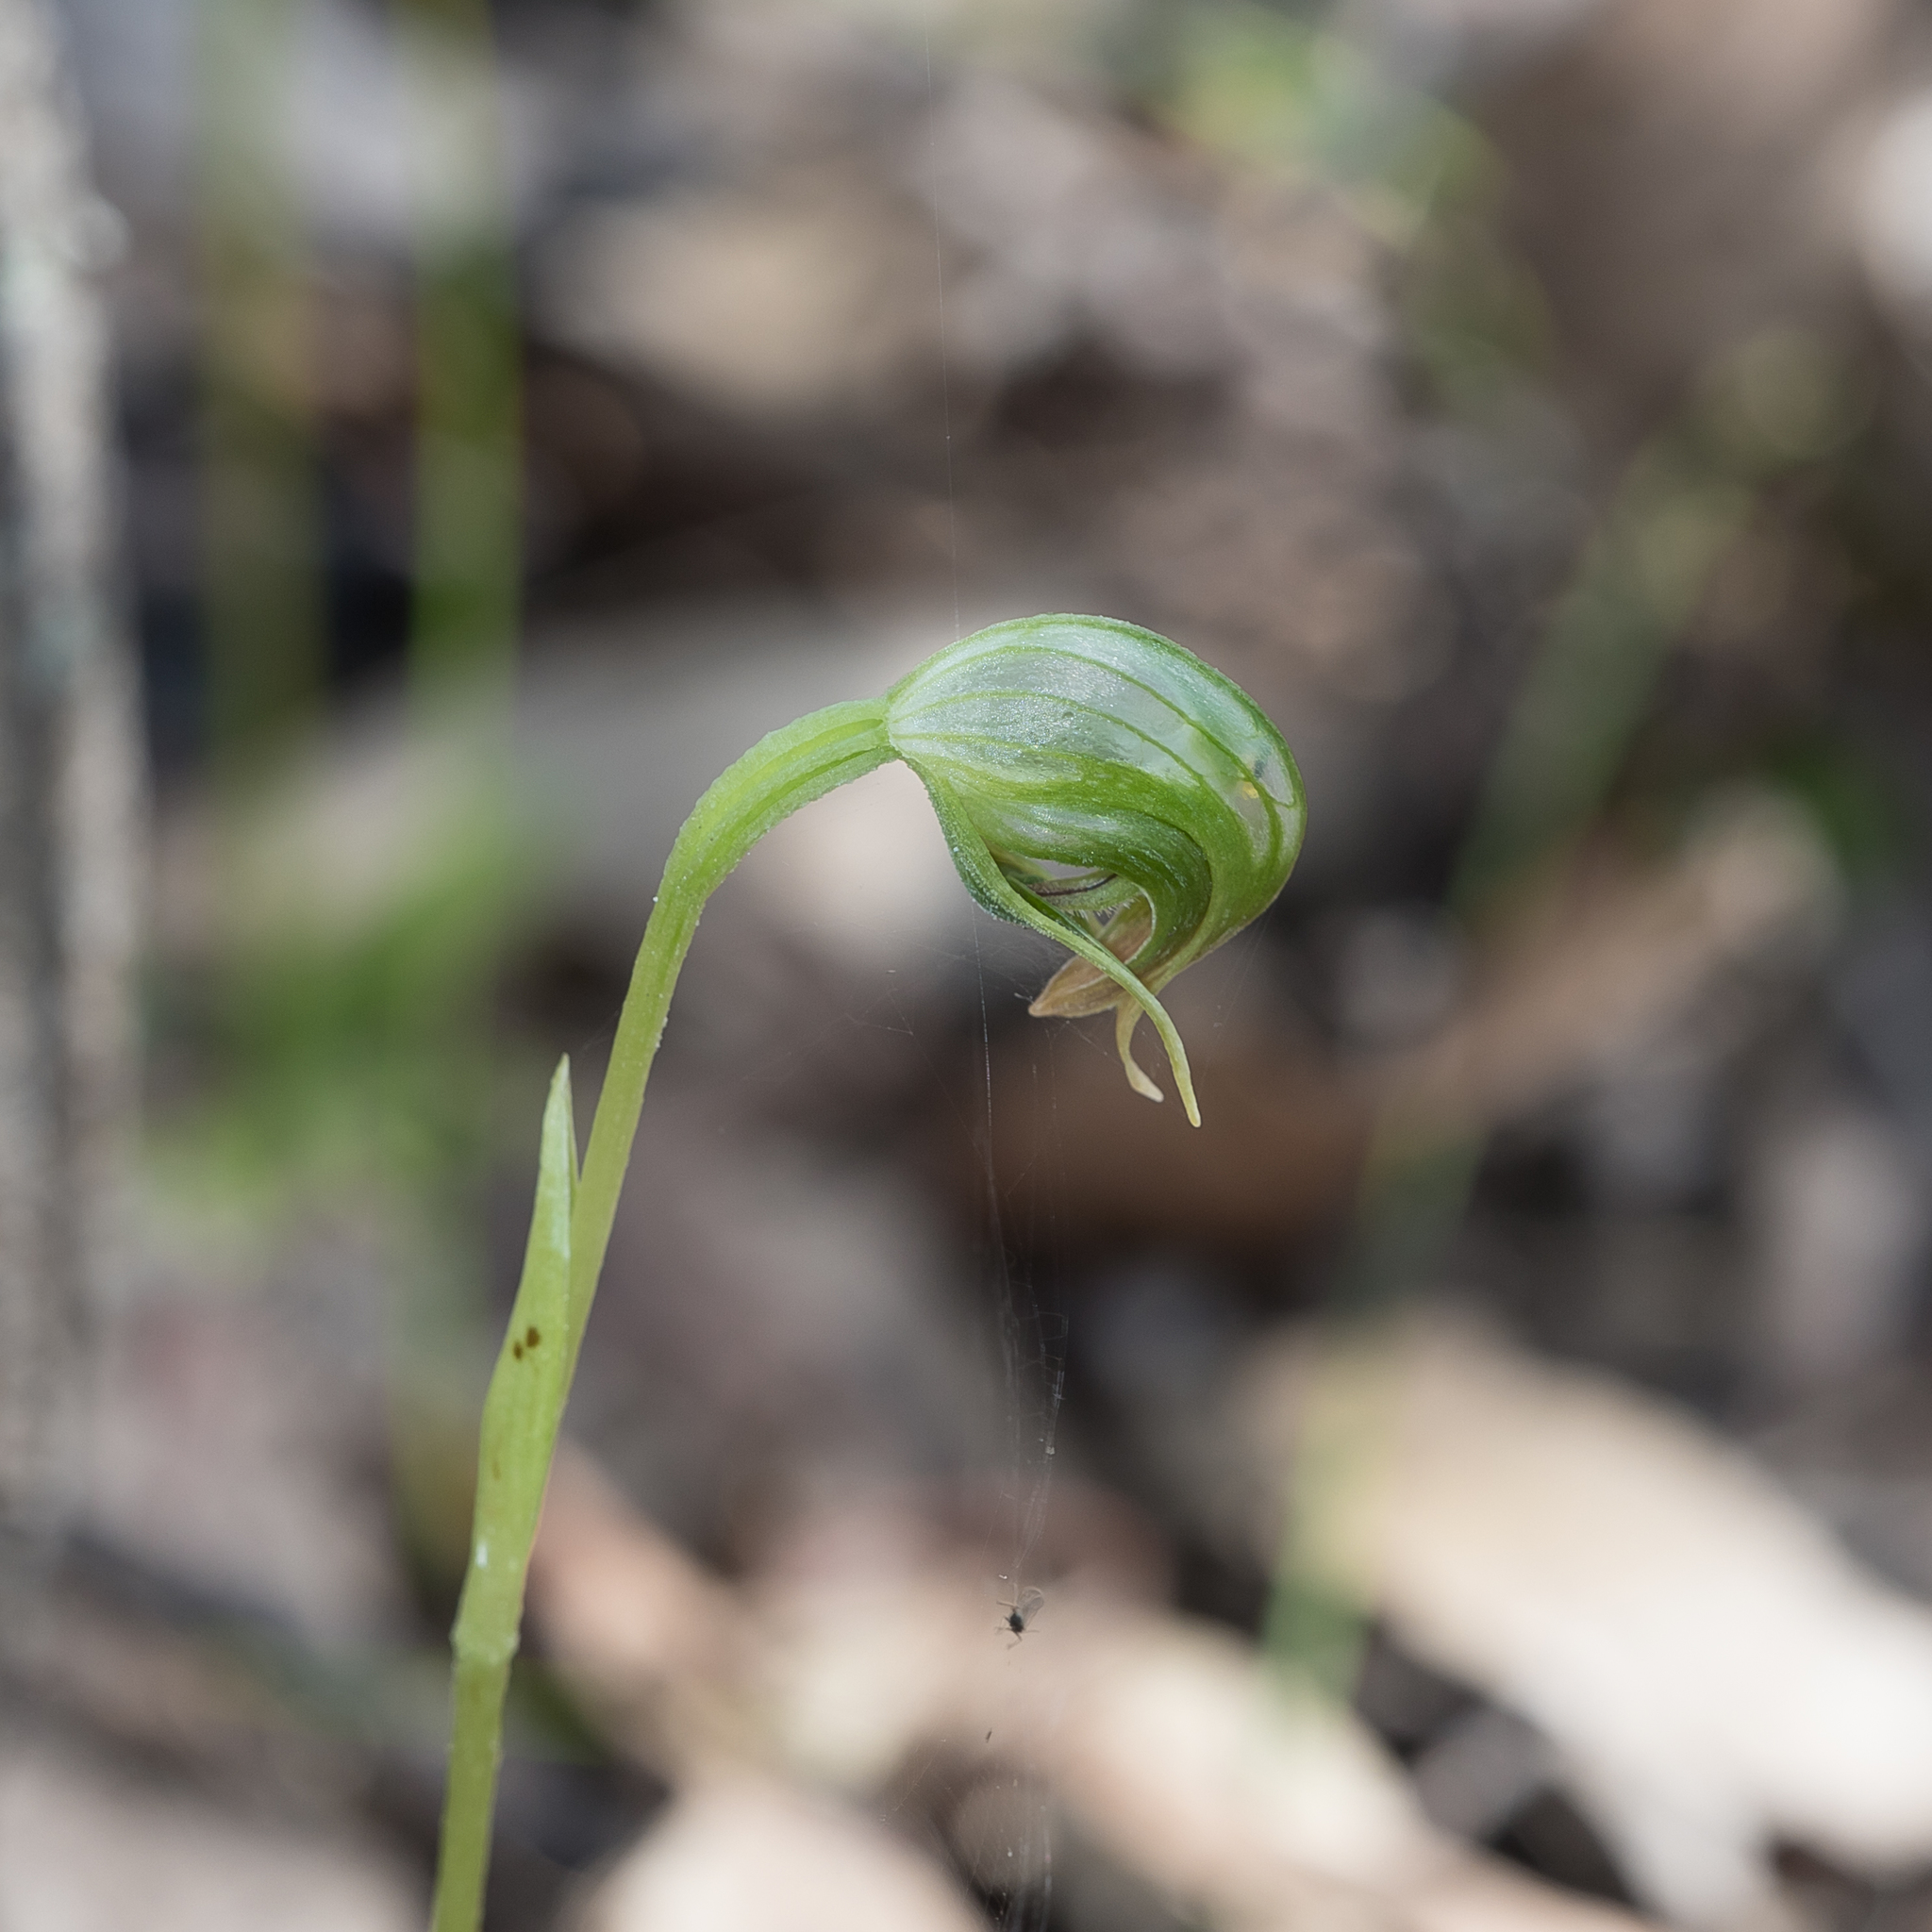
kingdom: Plantae
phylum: Tracheophyta
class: Liliopsida
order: Asparagales
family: Orchidaceae
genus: Pterostylis
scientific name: Pterostylis nutans
